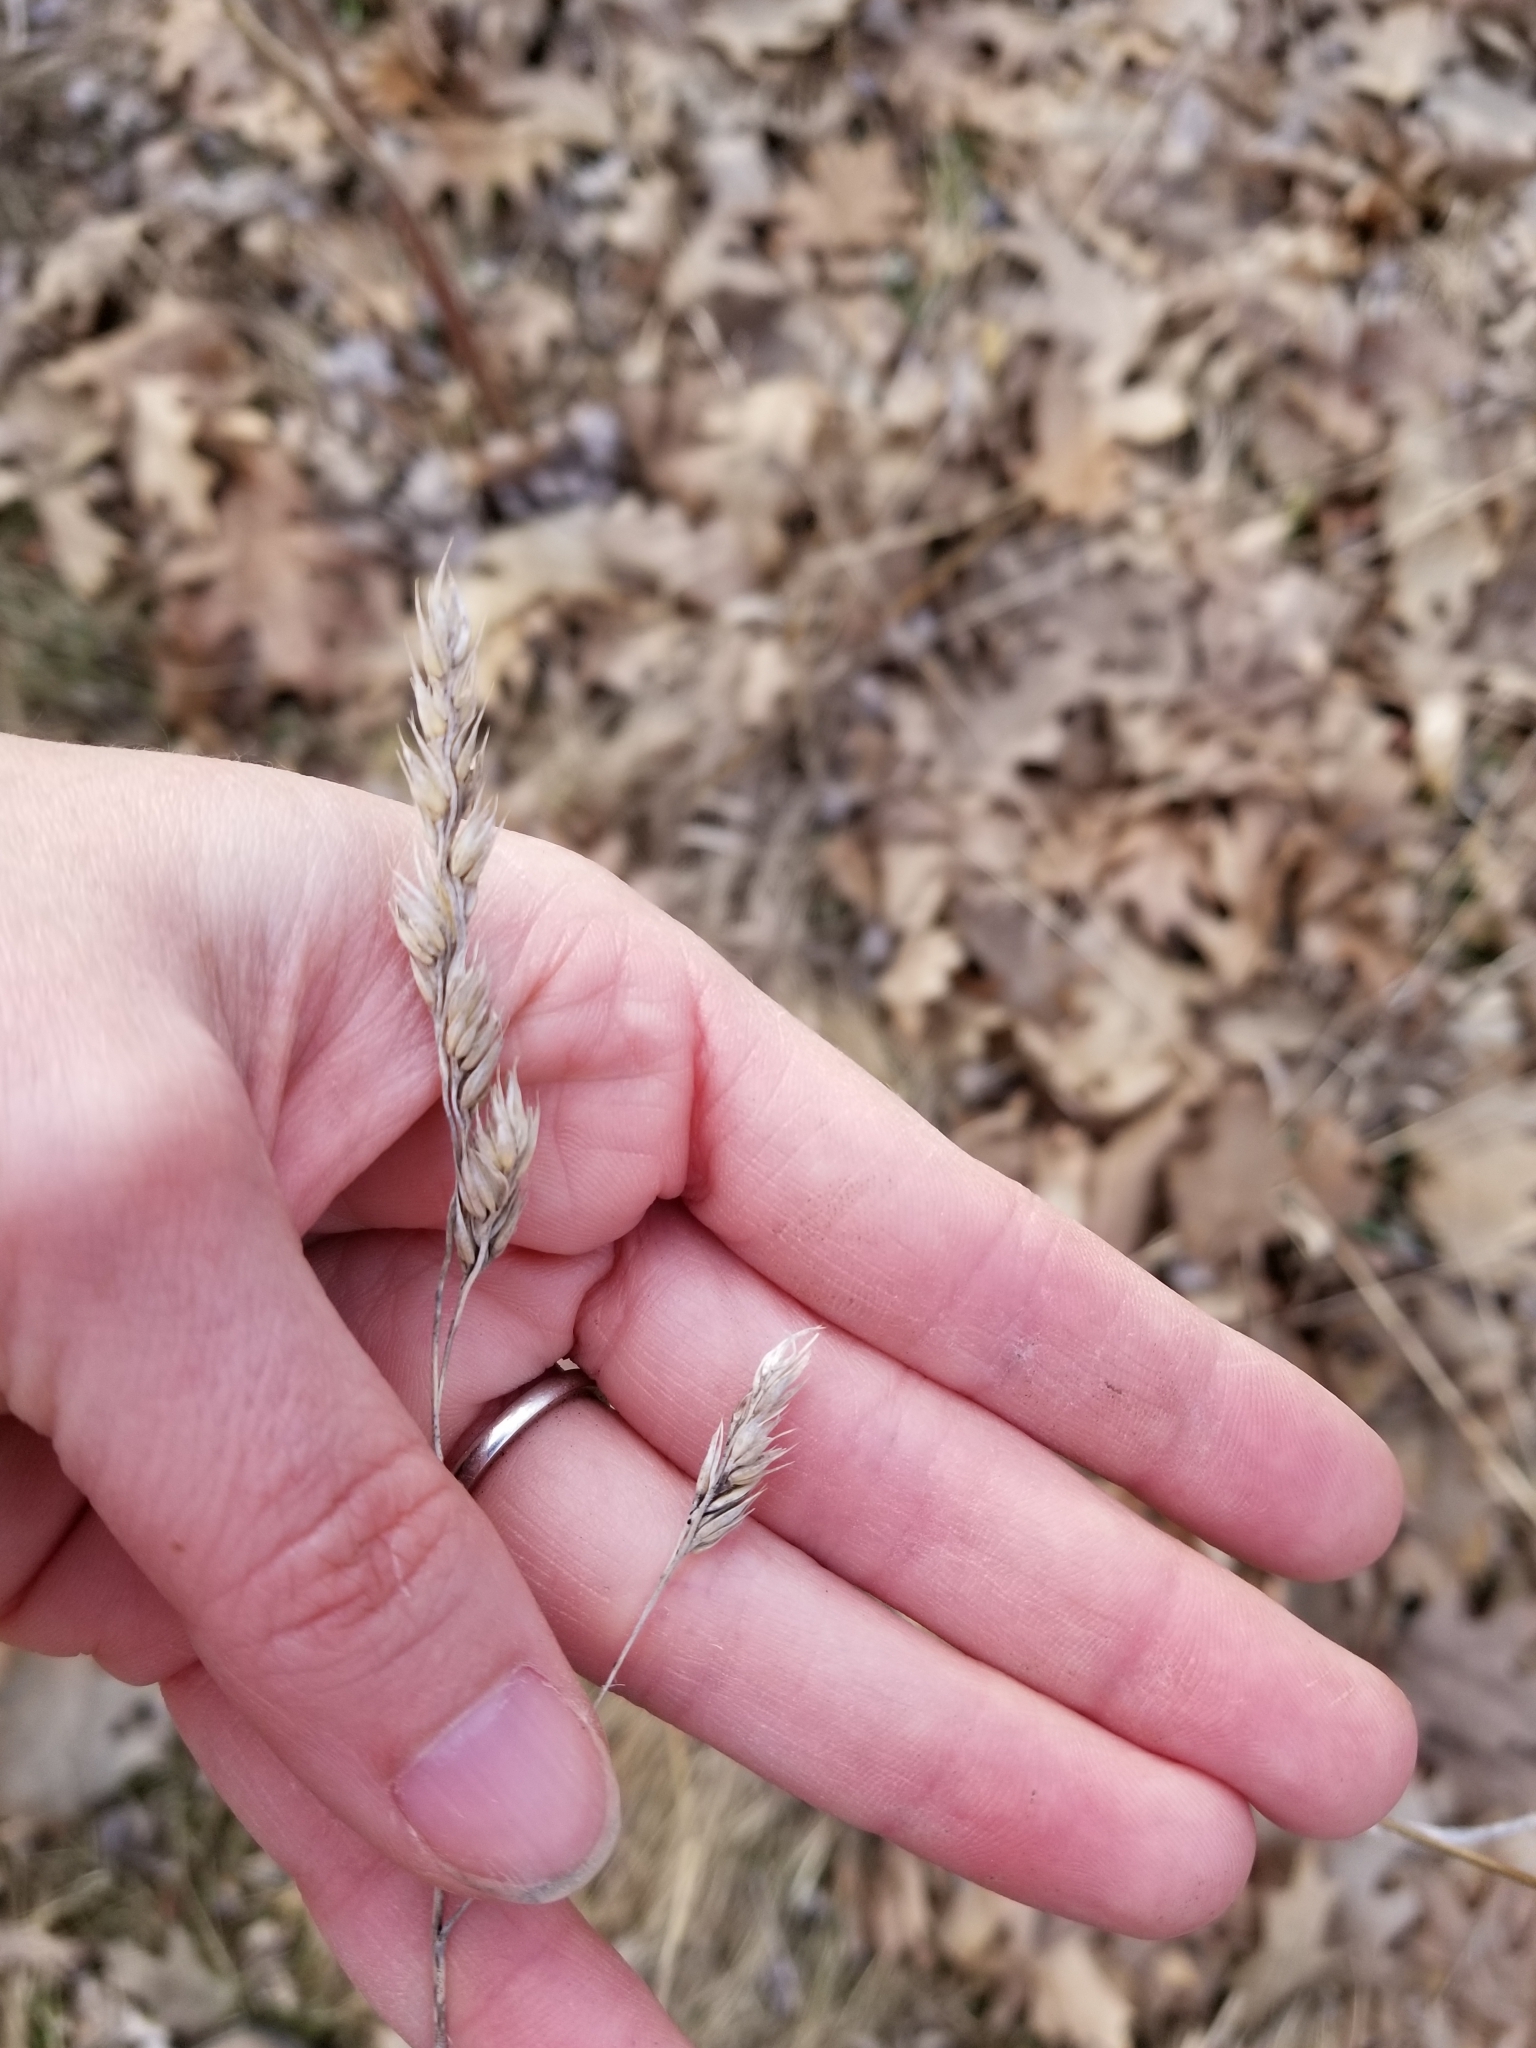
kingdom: Plantae
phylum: Tracheophyta
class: Liliopsida
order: Poales
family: Poaceae
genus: Dactylis
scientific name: Dactylis glomerata
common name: Orchardgrass
